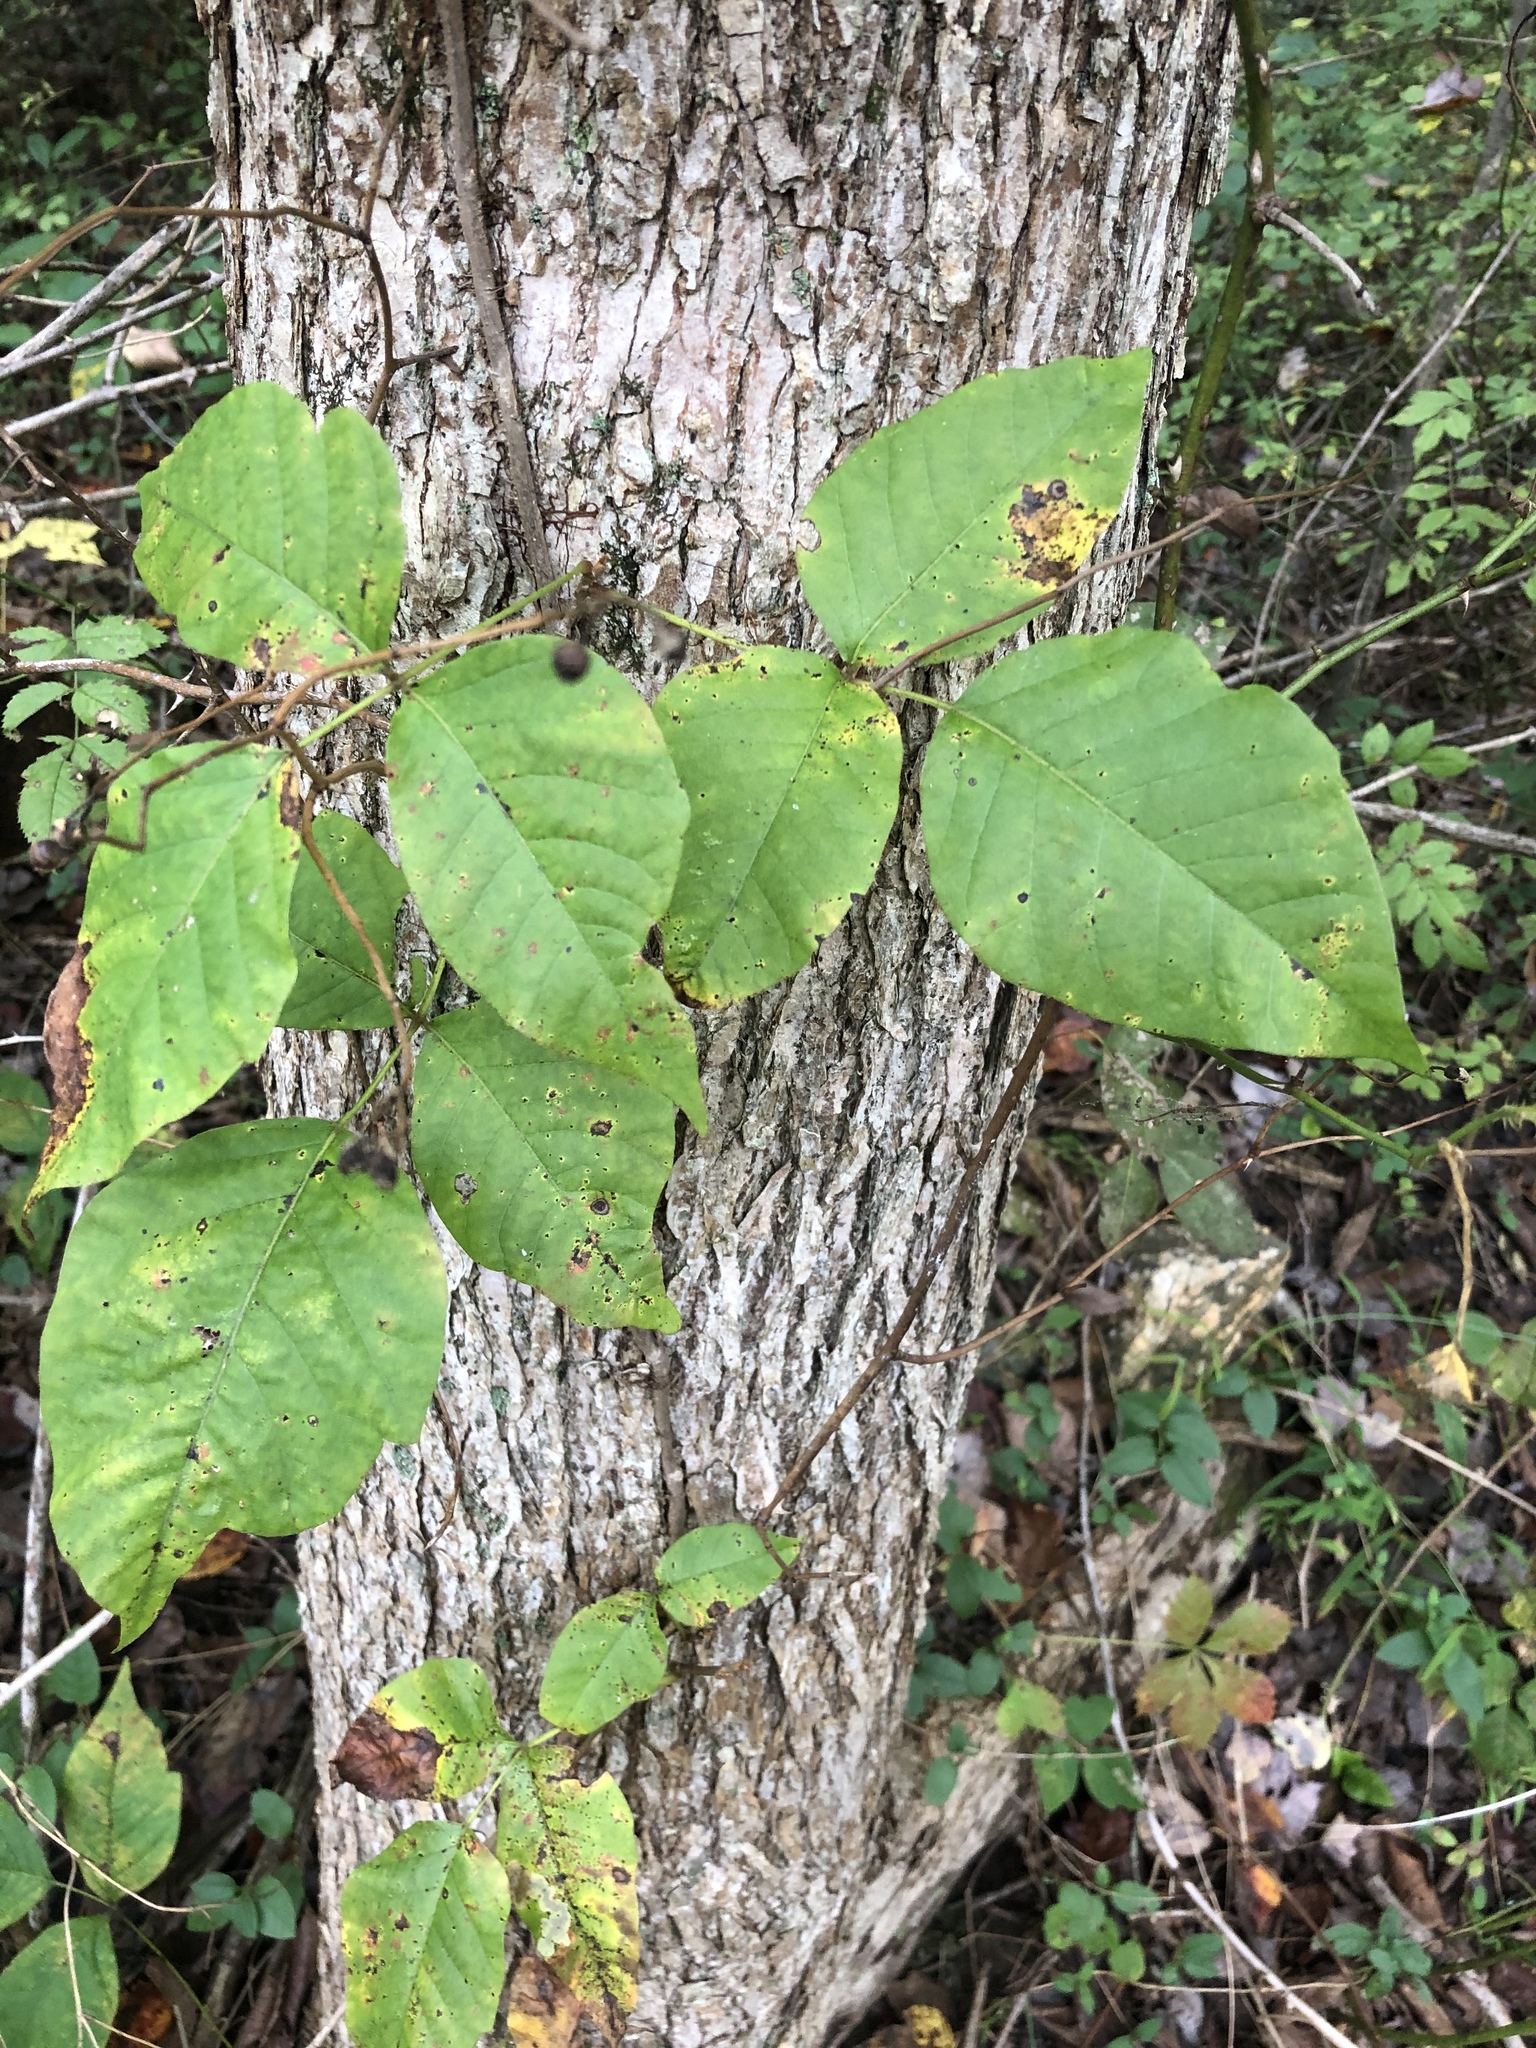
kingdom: Plantae
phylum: Tracheophyta
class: Magnoliopsida
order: Sapindales
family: Anacardiaceae
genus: Toxicodendron
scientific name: Toxicodendron radicans
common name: Poison ivy
